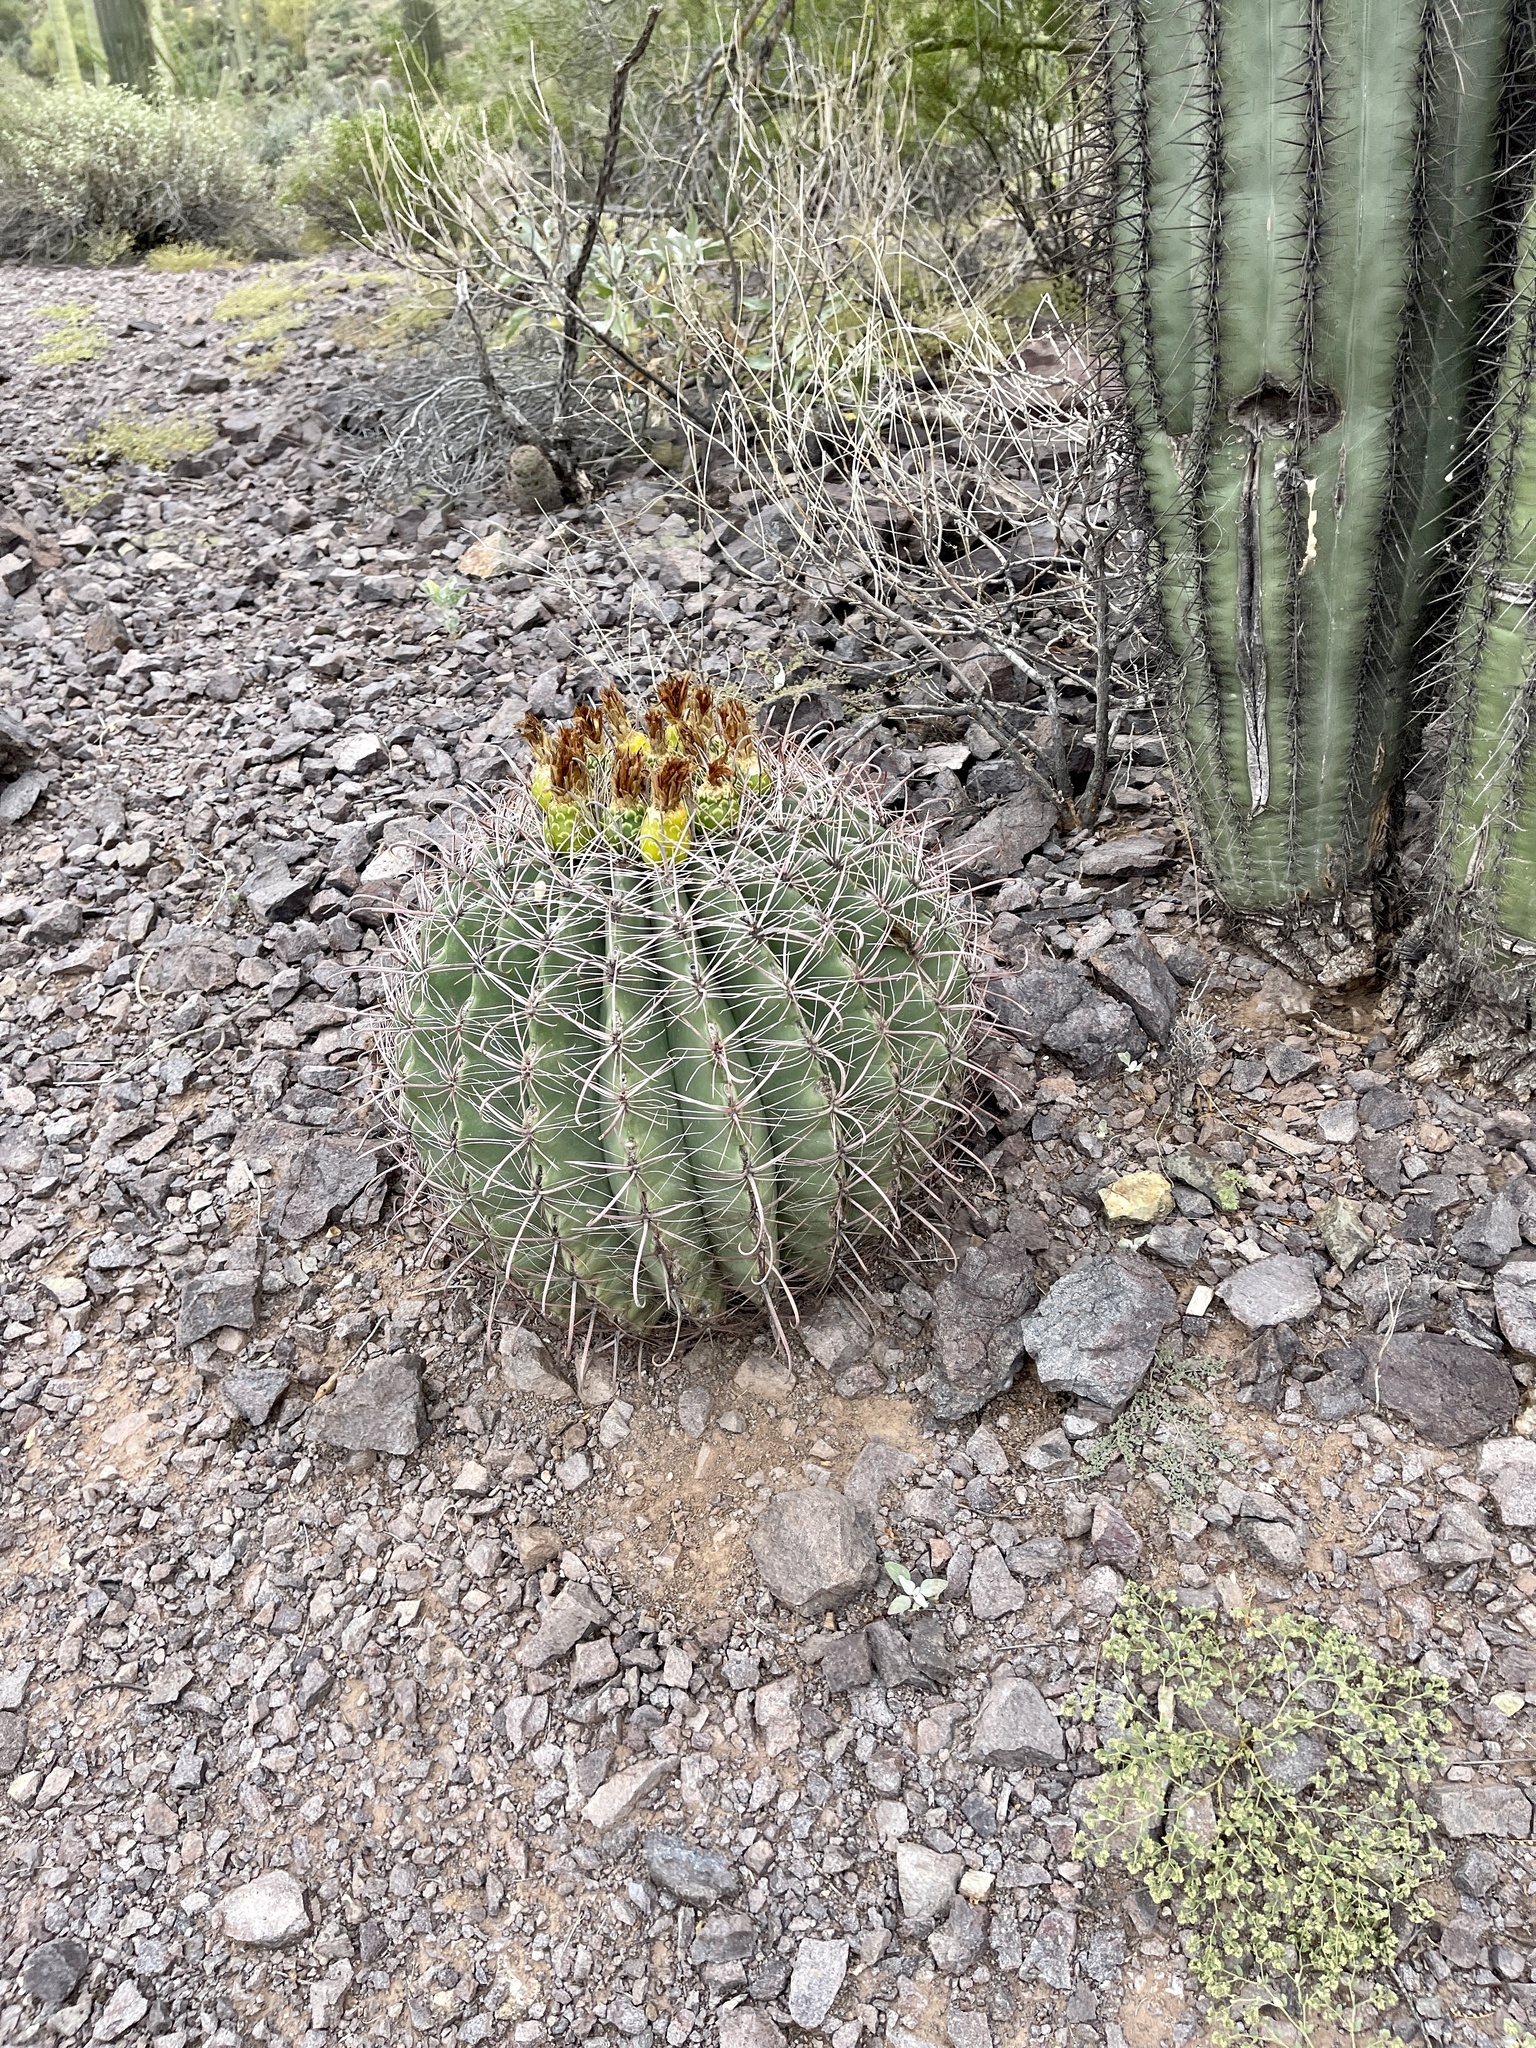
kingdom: Plantae
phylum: Tracheophyta
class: Magnoliopsida
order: Caryophyllales
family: Cactaceae
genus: Ferocactus
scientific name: Ferocactus wislizeni
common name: Candy barrel cactus
